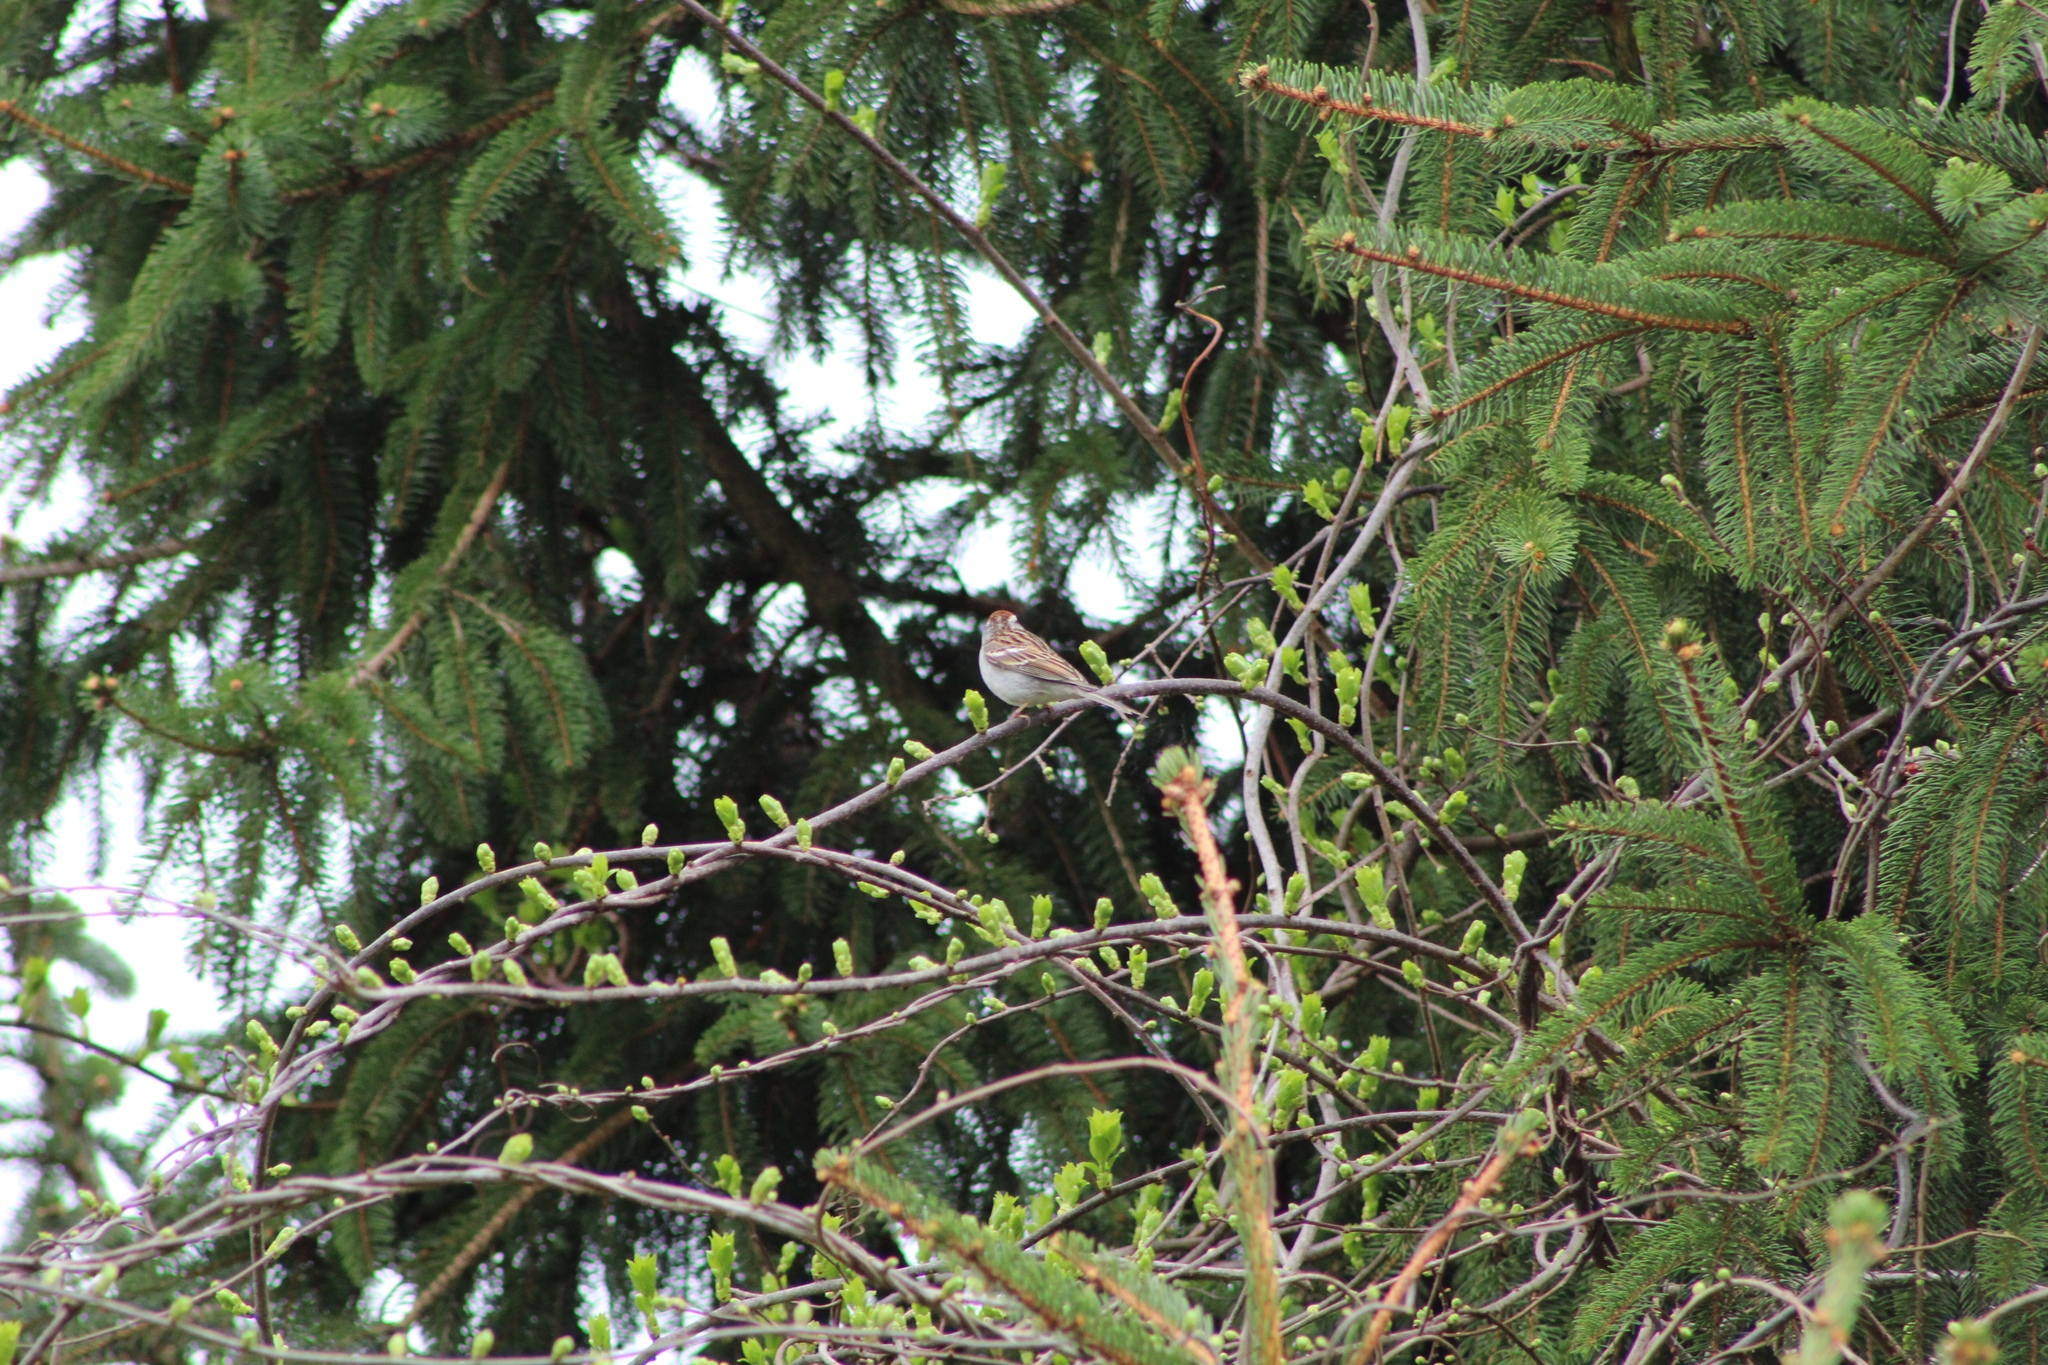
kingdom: Animalia
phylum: Chordata
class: Aves
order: Passeriformes
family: Passerellidae
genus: Spizella
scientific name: Spizella passerina
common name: Chipping sparrow
